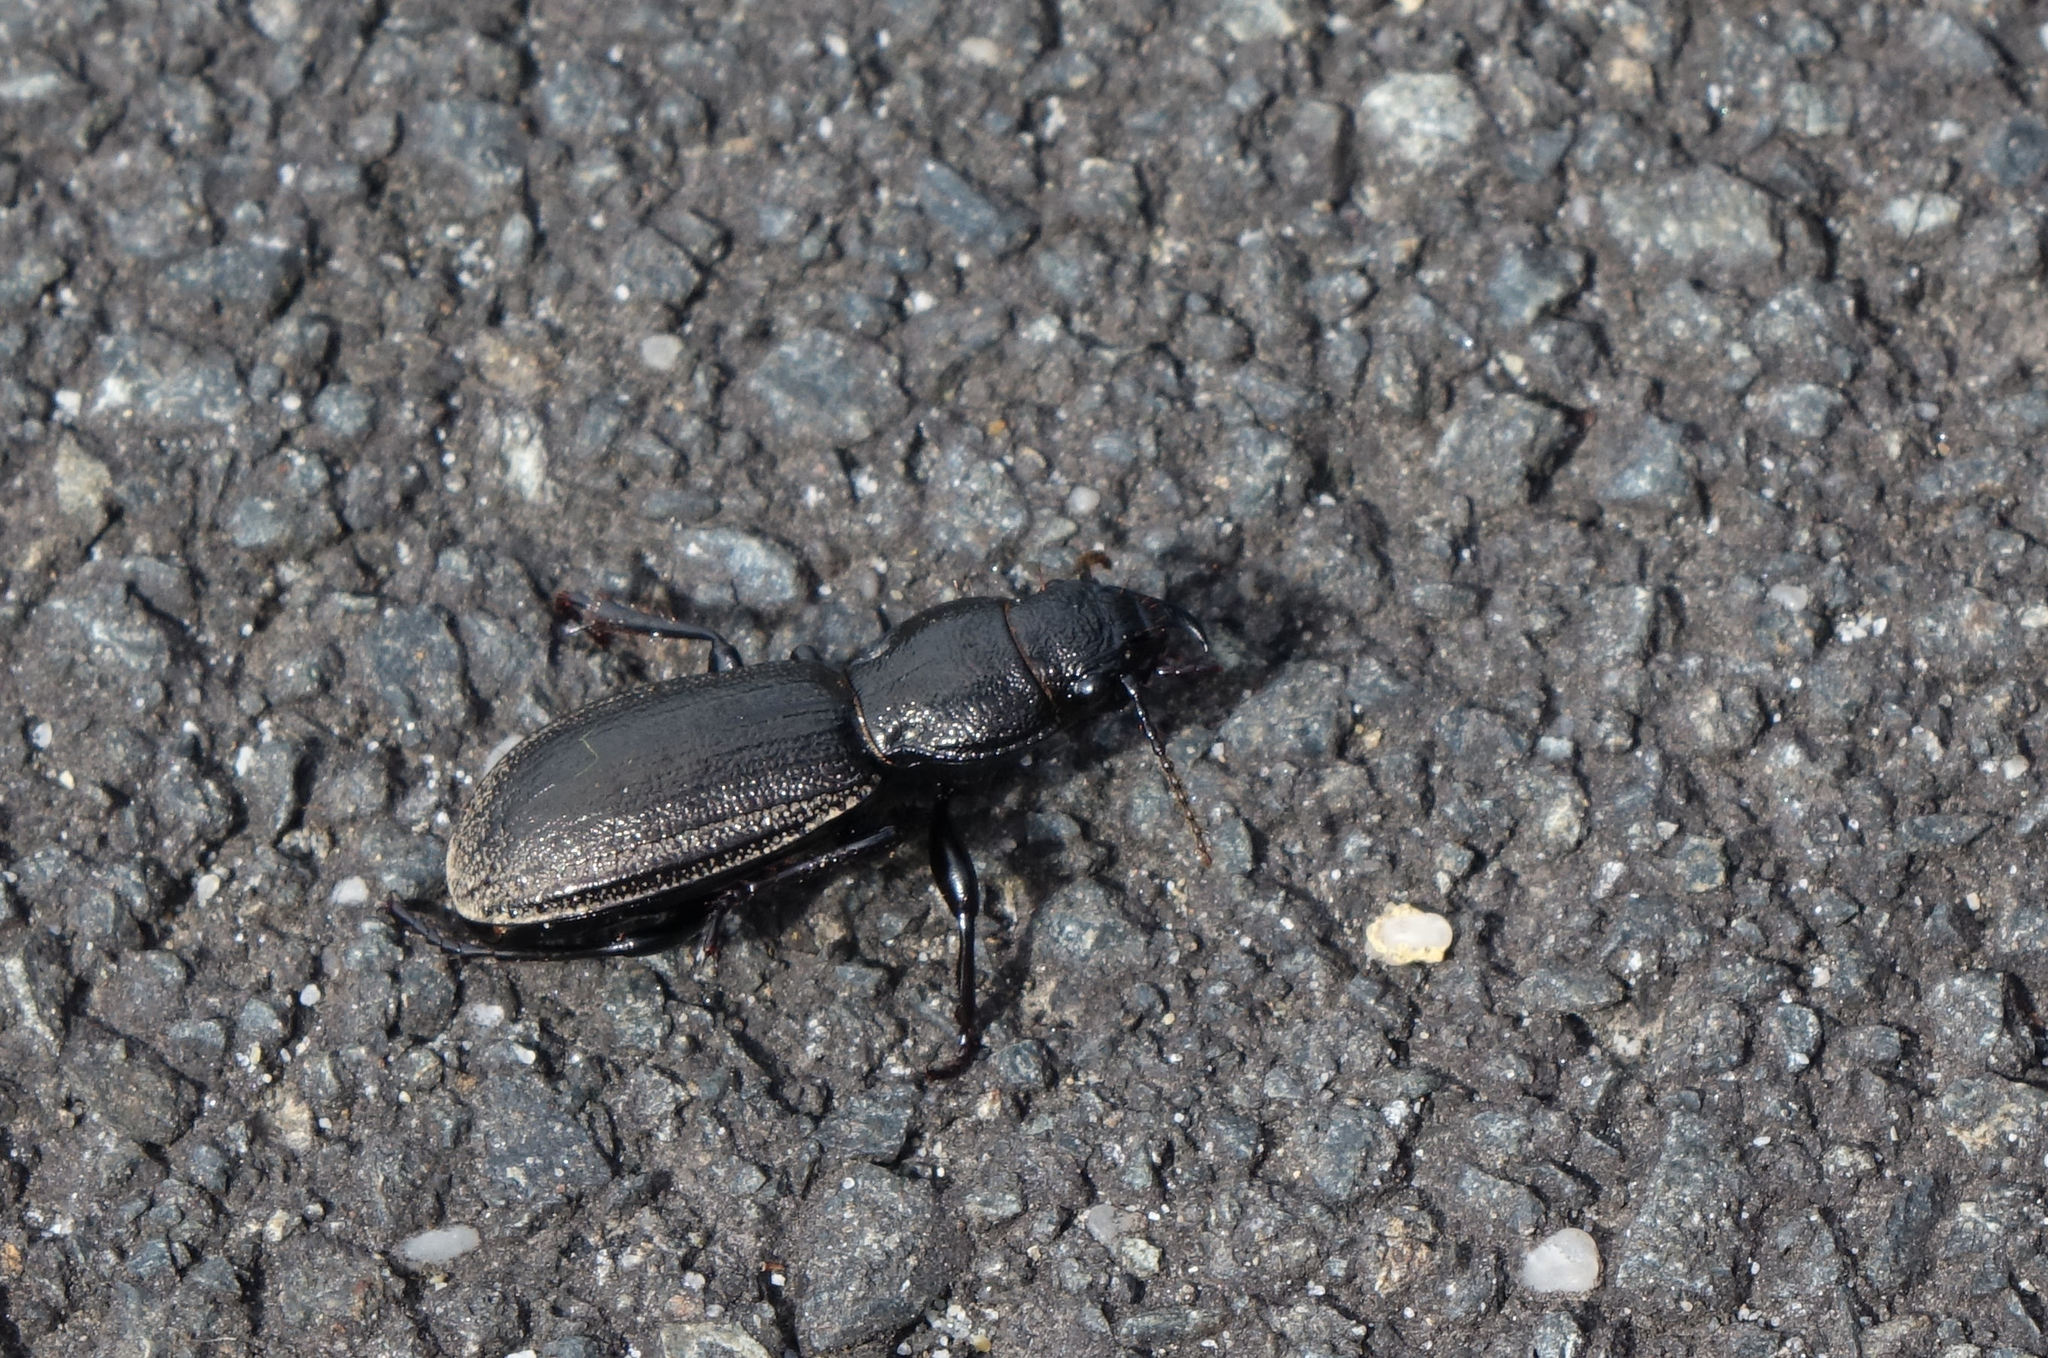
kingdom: Animalia
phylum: Arthropoda
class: Insecta
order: Coleoptera
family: Carabidae
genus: Mecodema
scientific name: Mecodema sculpturatum
